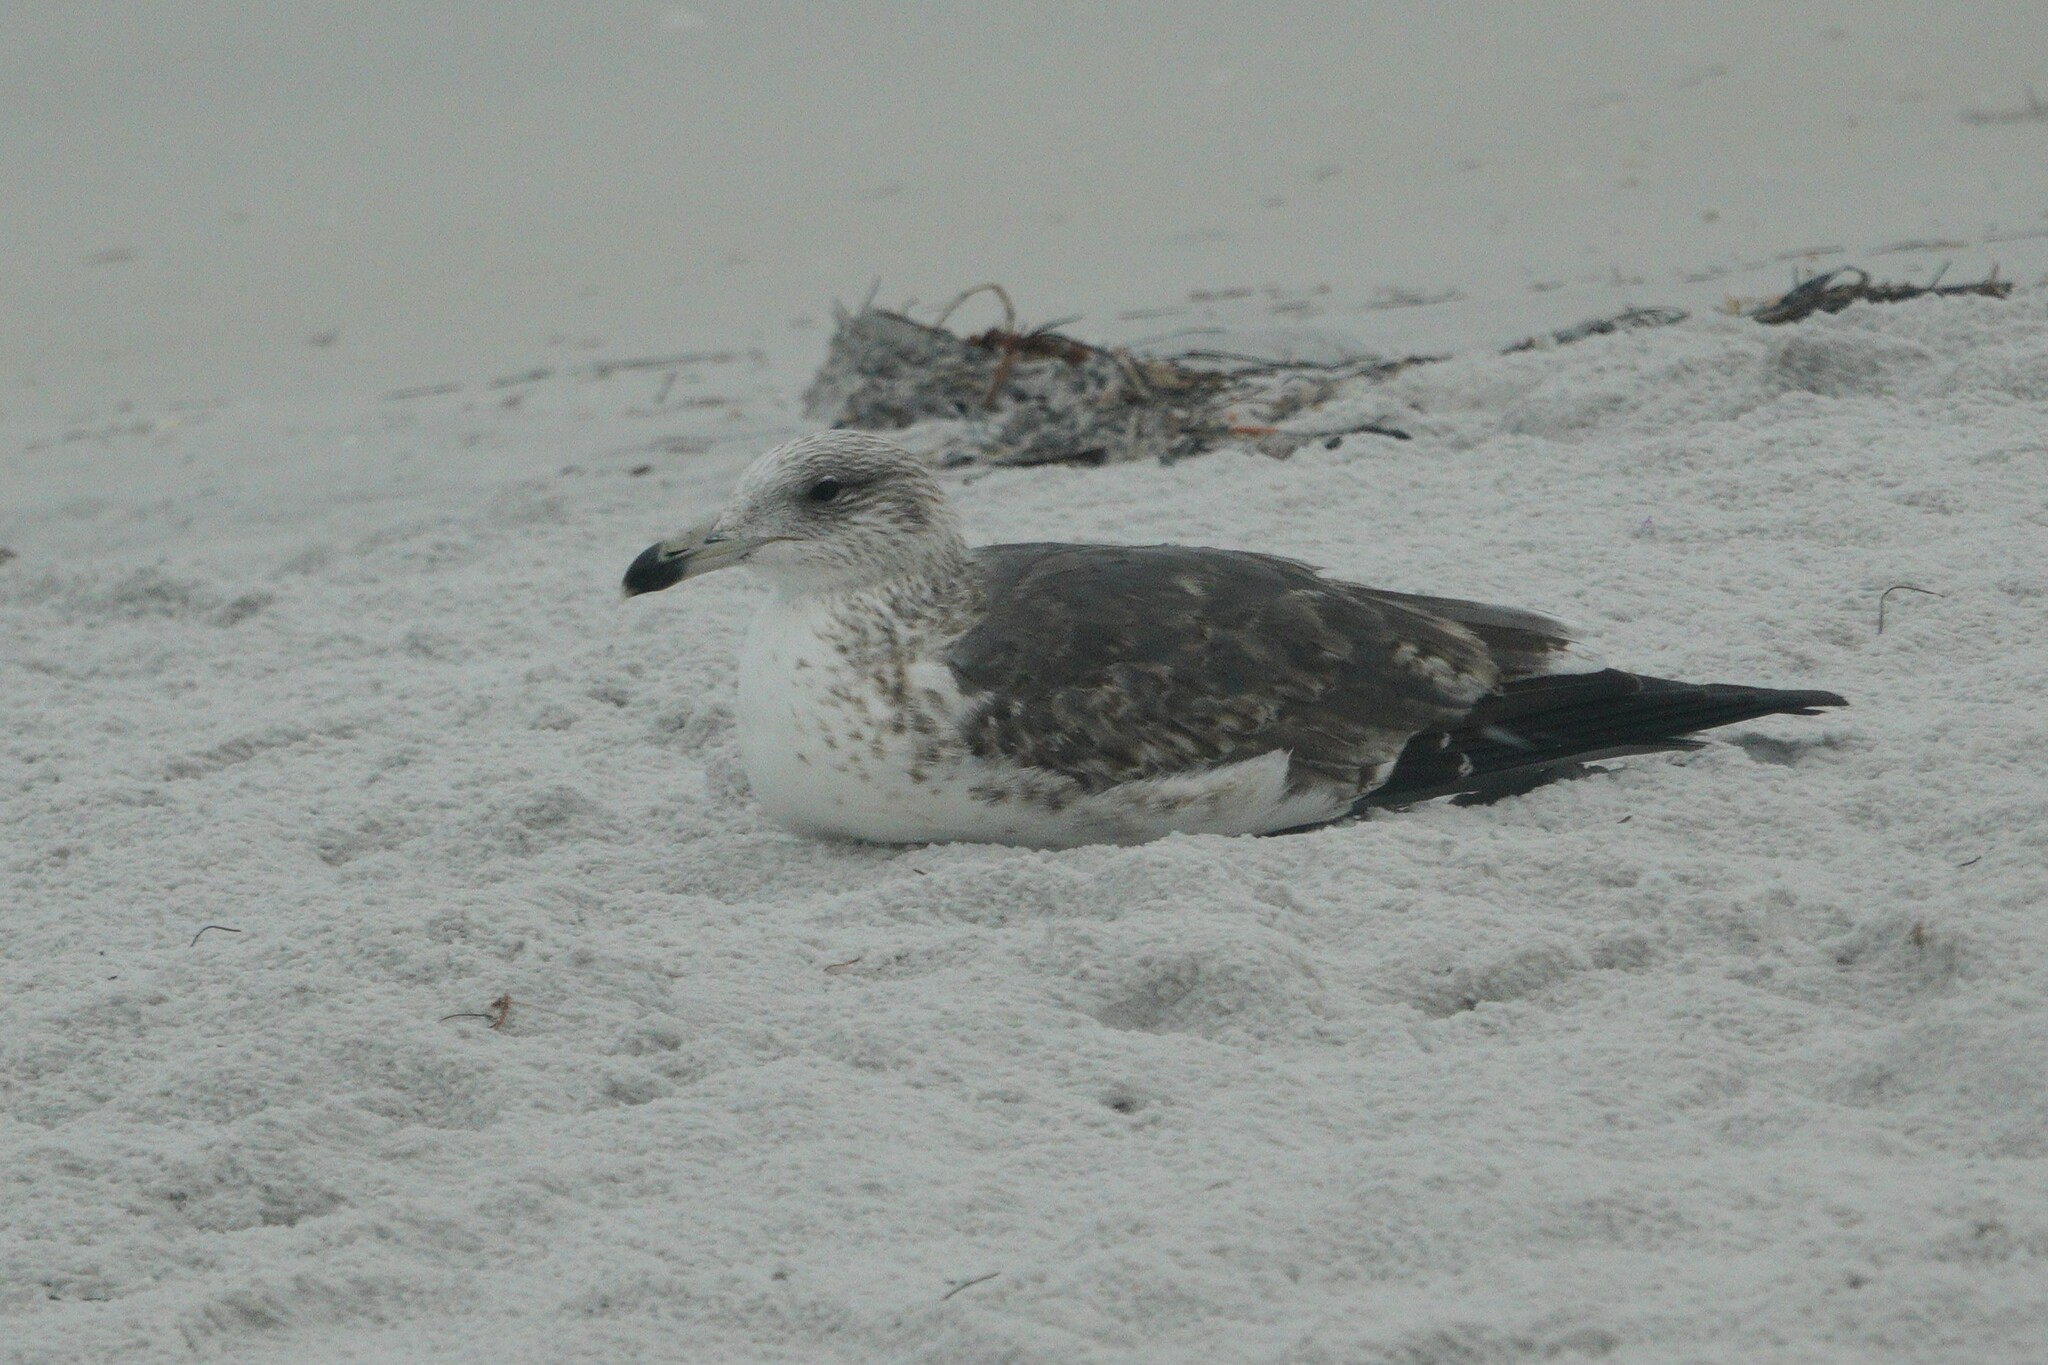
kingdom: Animalia
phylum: Chordata
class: Aves
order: Charadriiformes
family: Laridae
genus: Larus
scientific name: Larus fuscus
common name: Lesser black-backed gull
